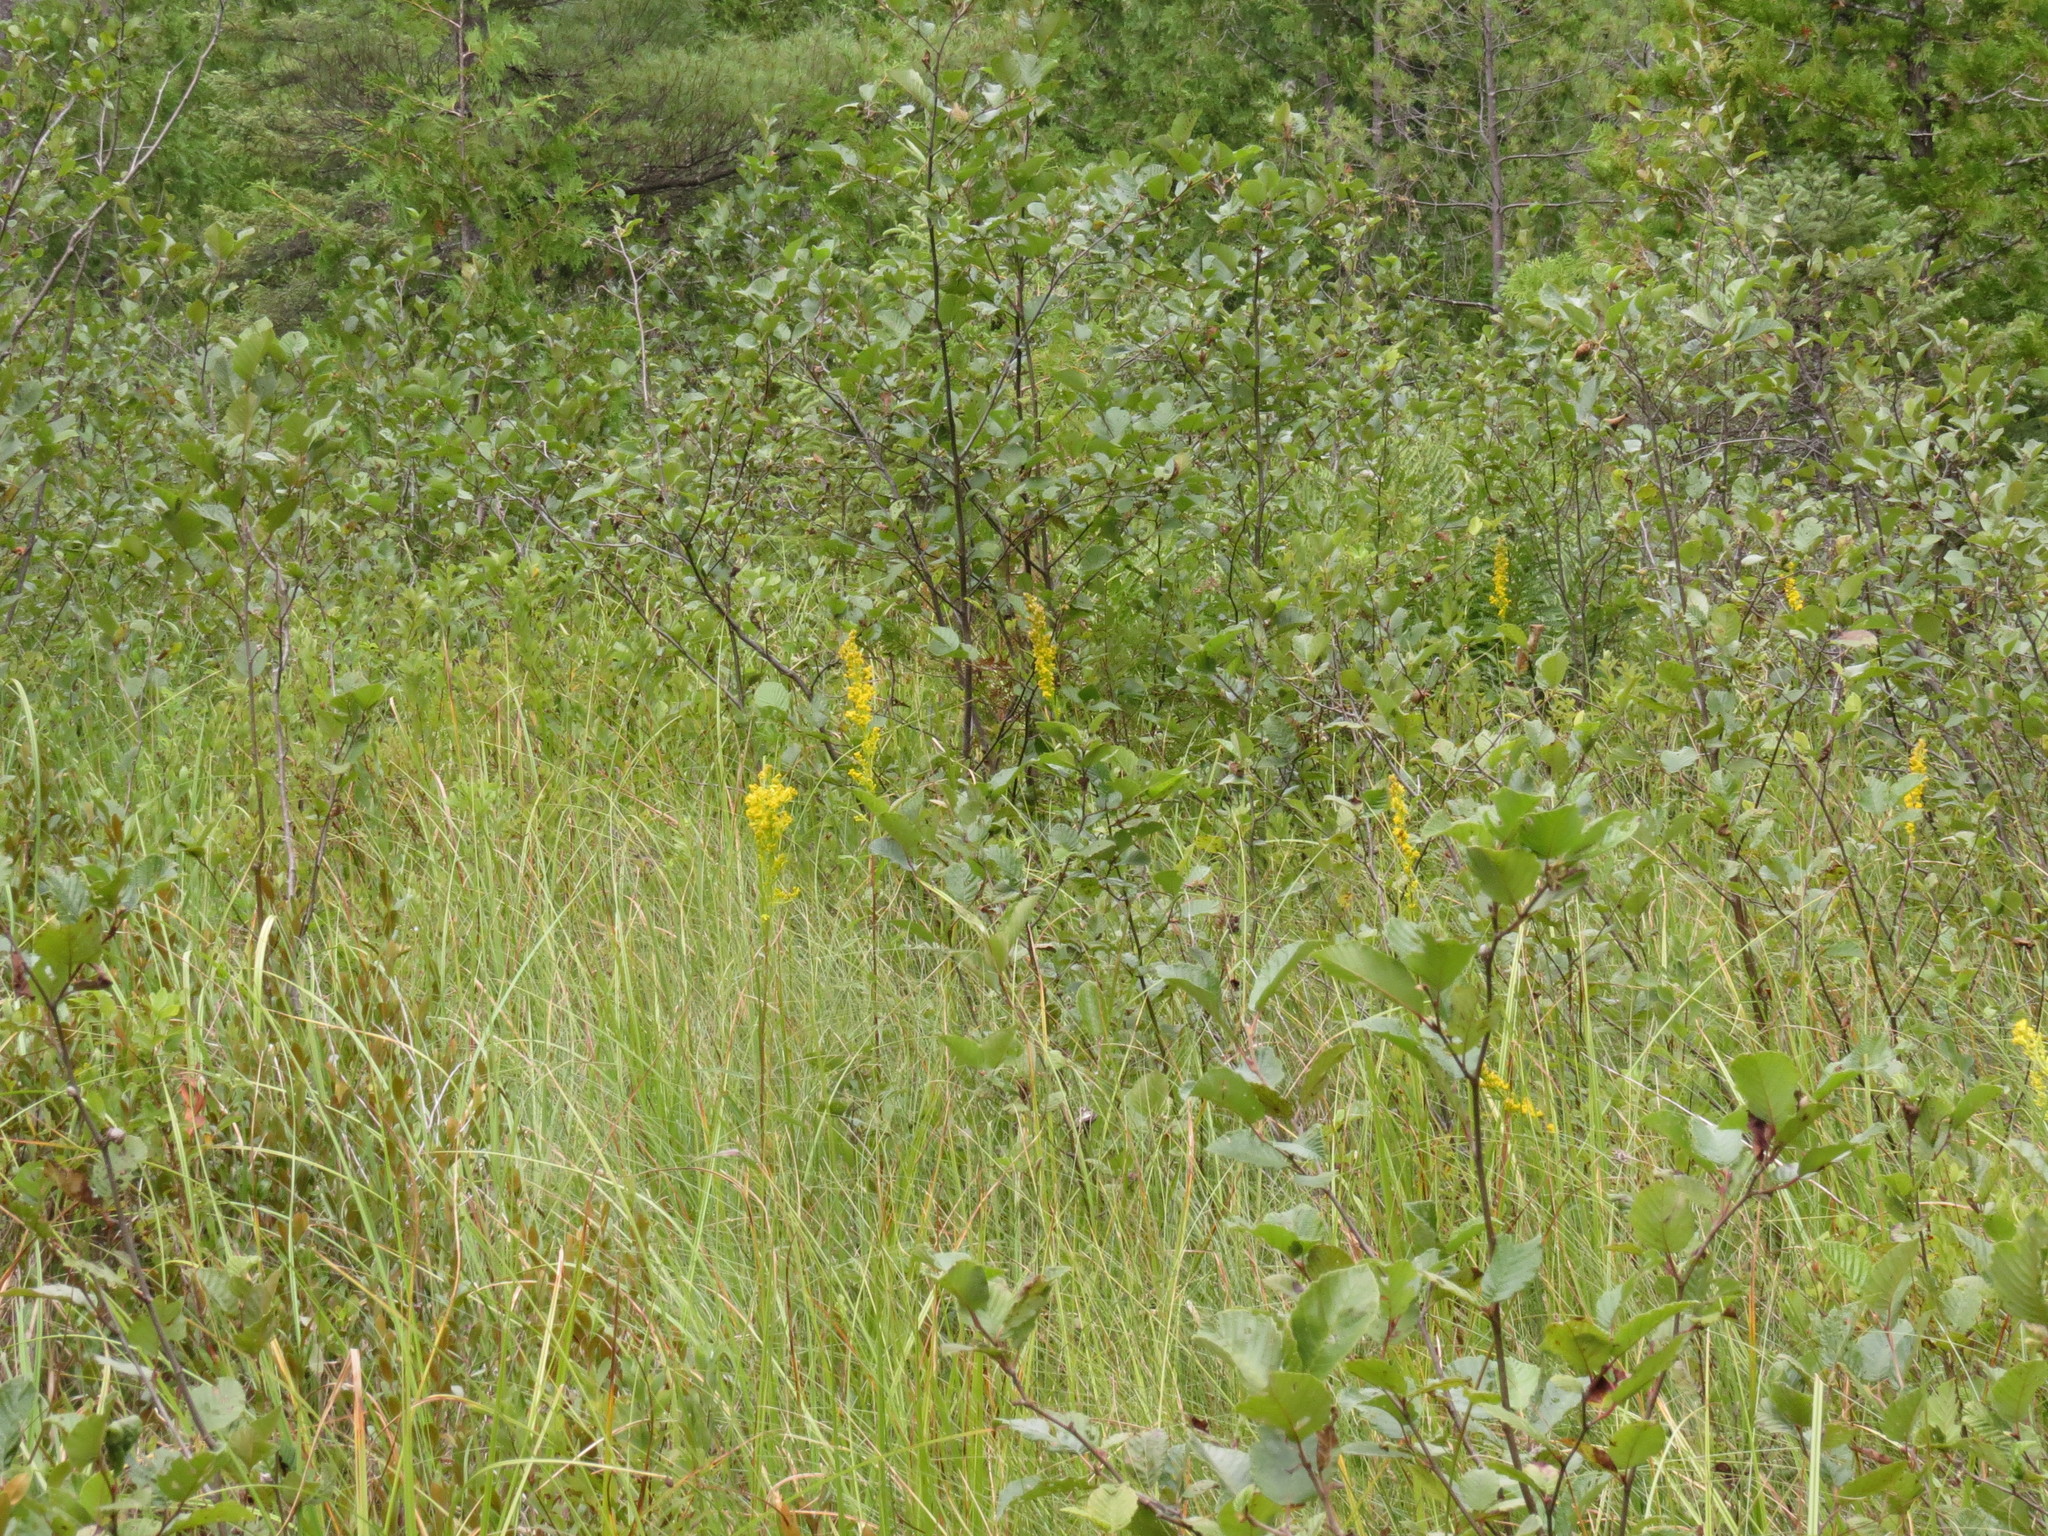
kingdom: Plantae
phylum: Tracheophyta
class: Magnoliopsida
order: Asterales
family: Asteraceae
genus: Solidago
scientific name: Solidago uliginosa
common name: Bog goldenrod
